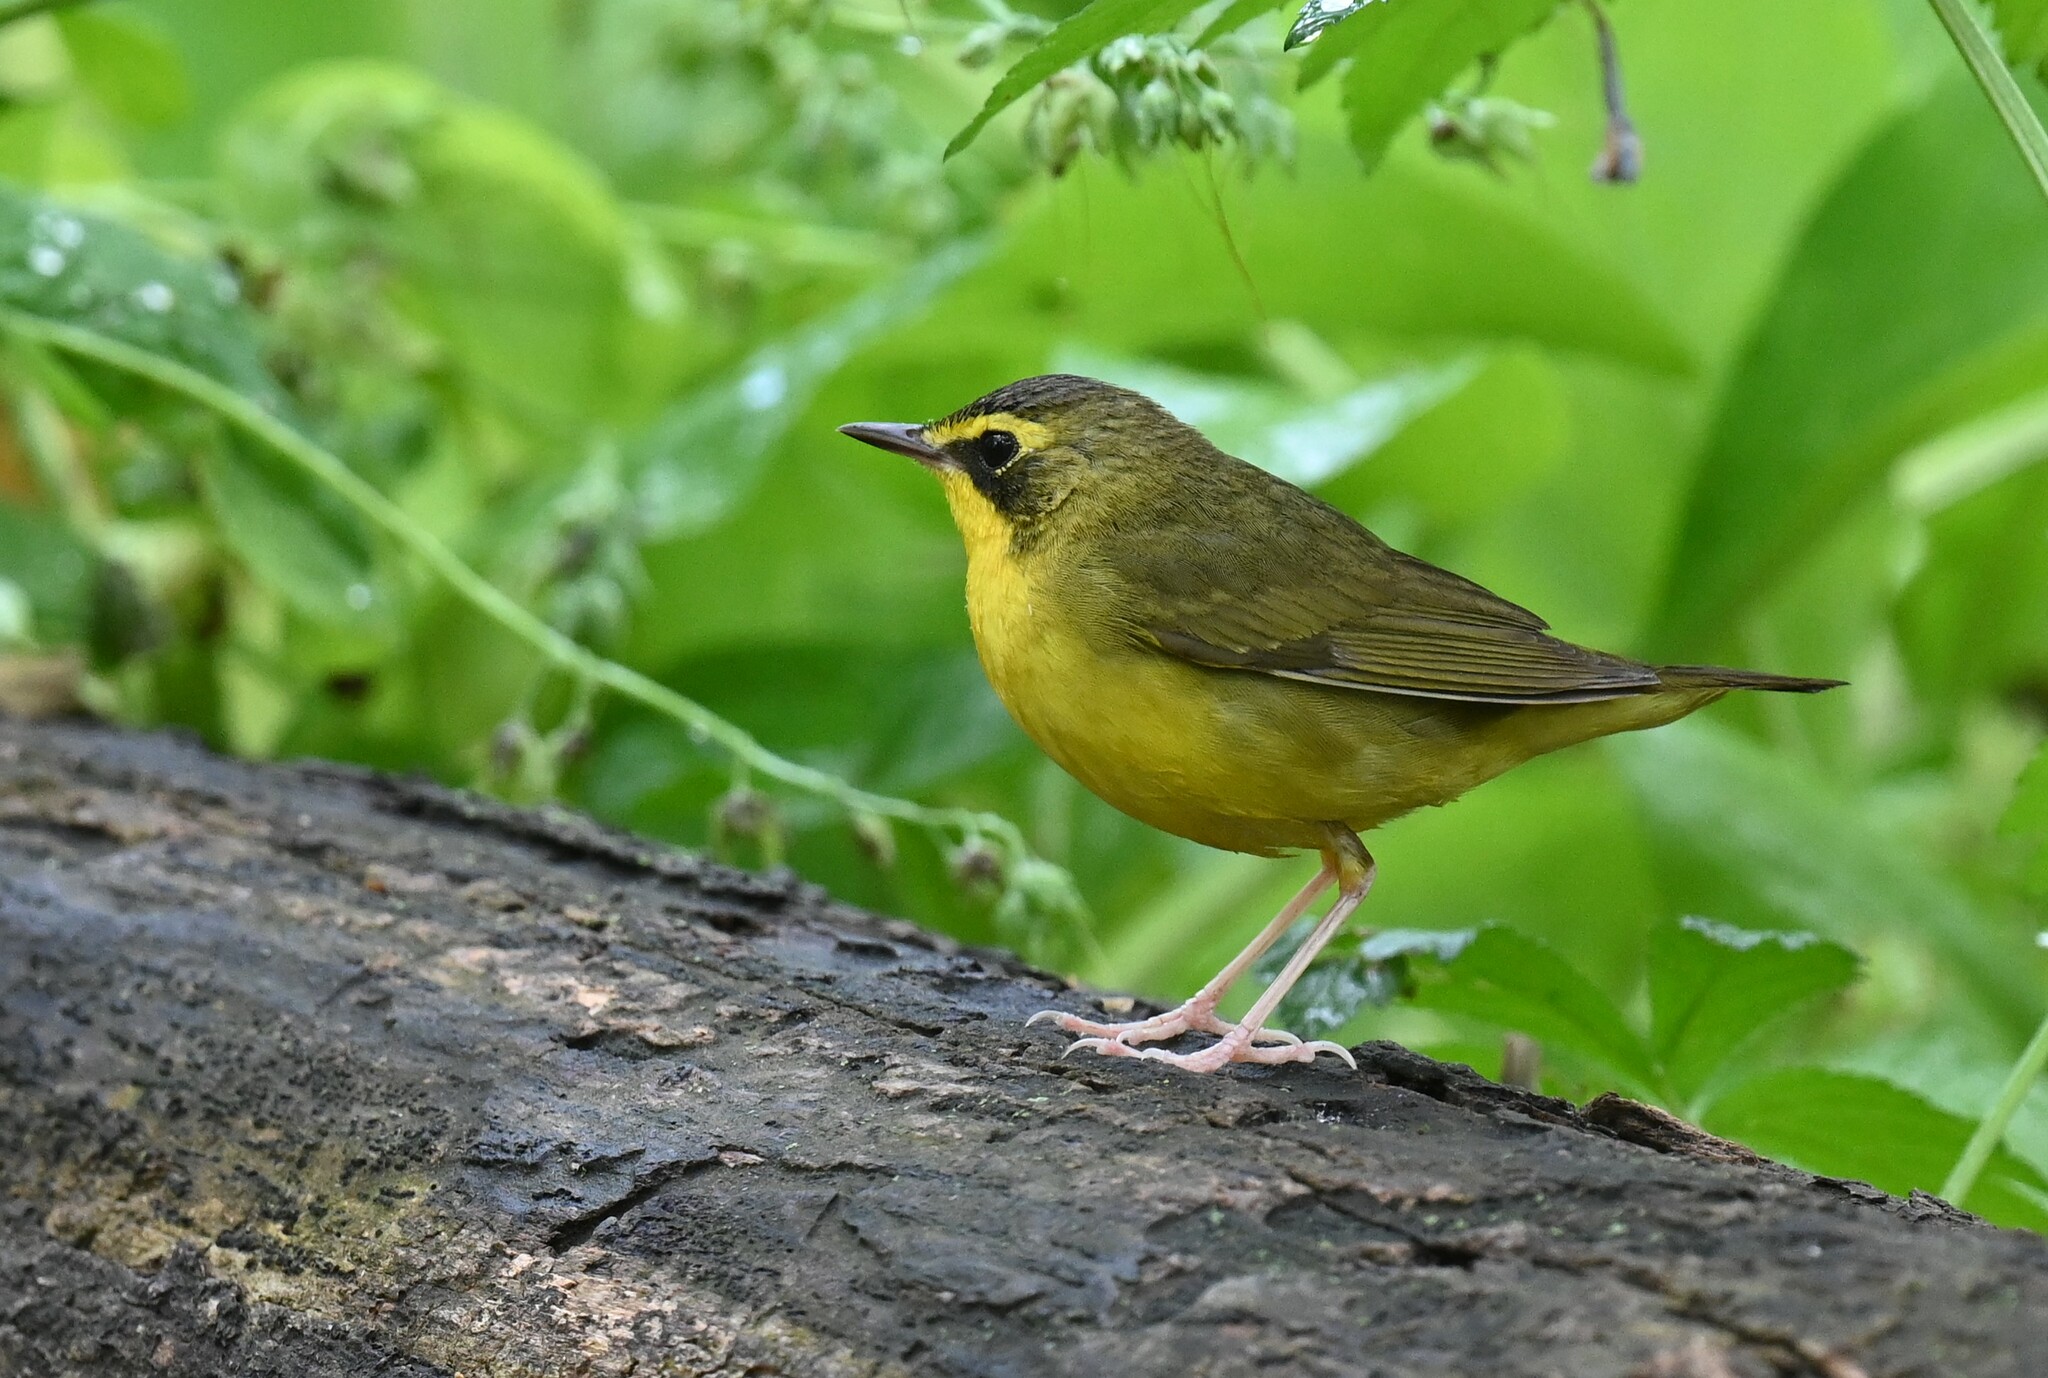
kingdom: Animalia
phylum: Chordata
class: Aves
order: Passeriformes
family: Parulidae
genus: Geothlypis
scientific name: Geothlypis formosa
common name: Kentucky warbler
